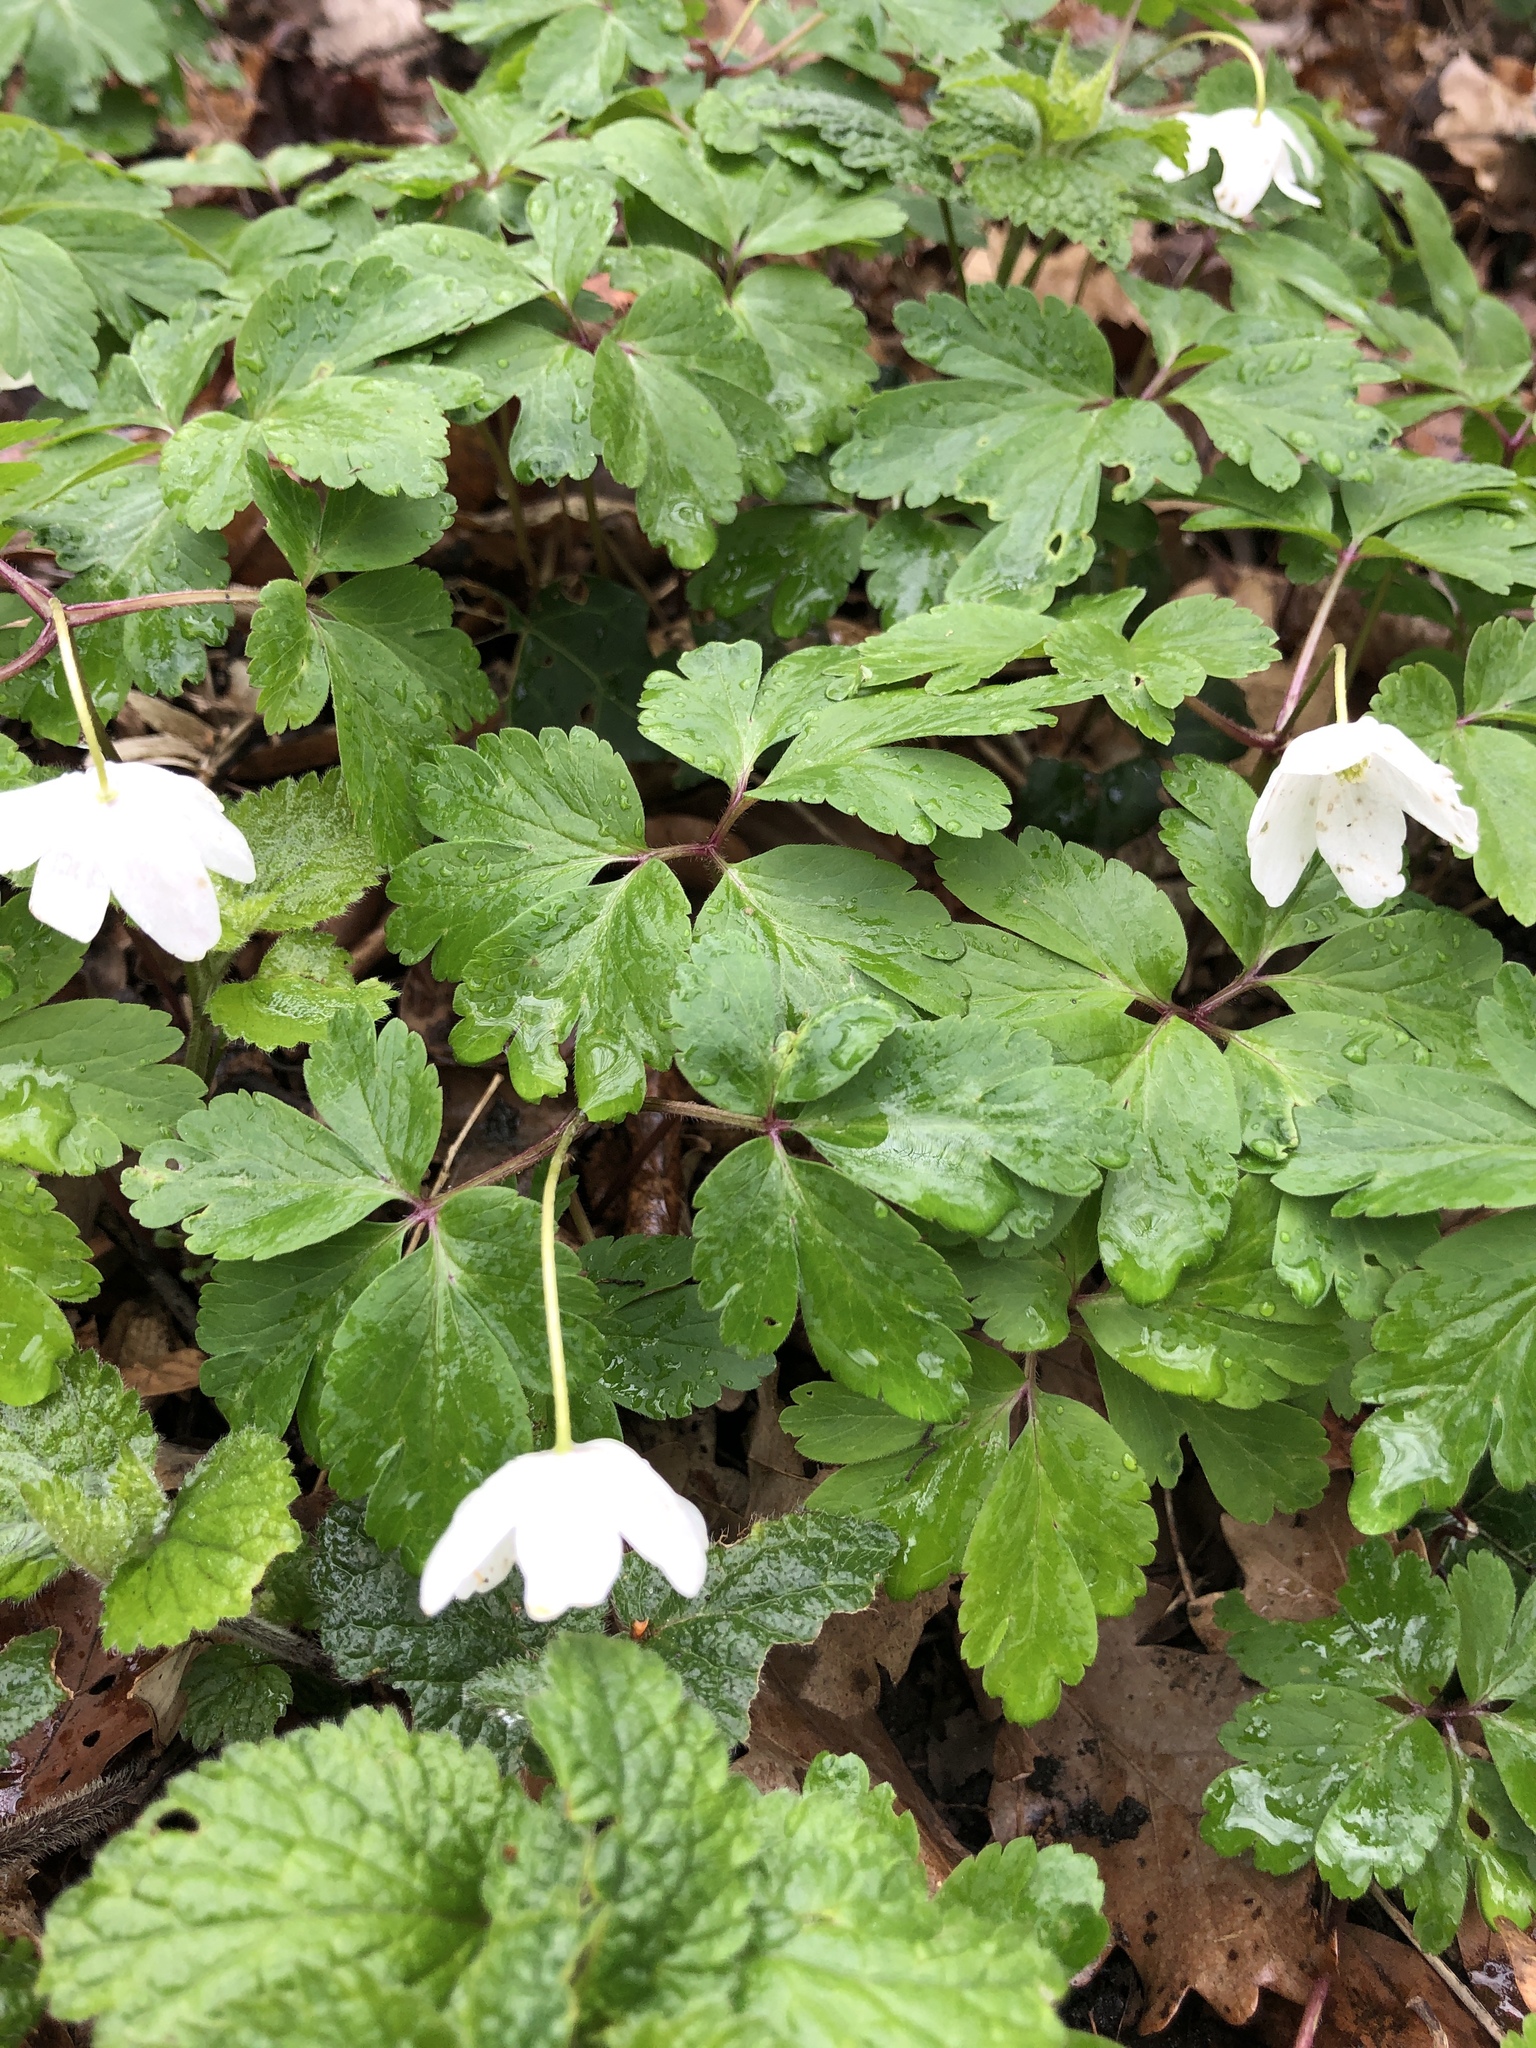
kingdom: Plantae
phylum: Tracheophyta
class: Magnoliopsida
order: Ranunculales
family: Ranunculaceae
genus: Anemone
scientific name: Anemone nemorosa
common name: Wood anemone
